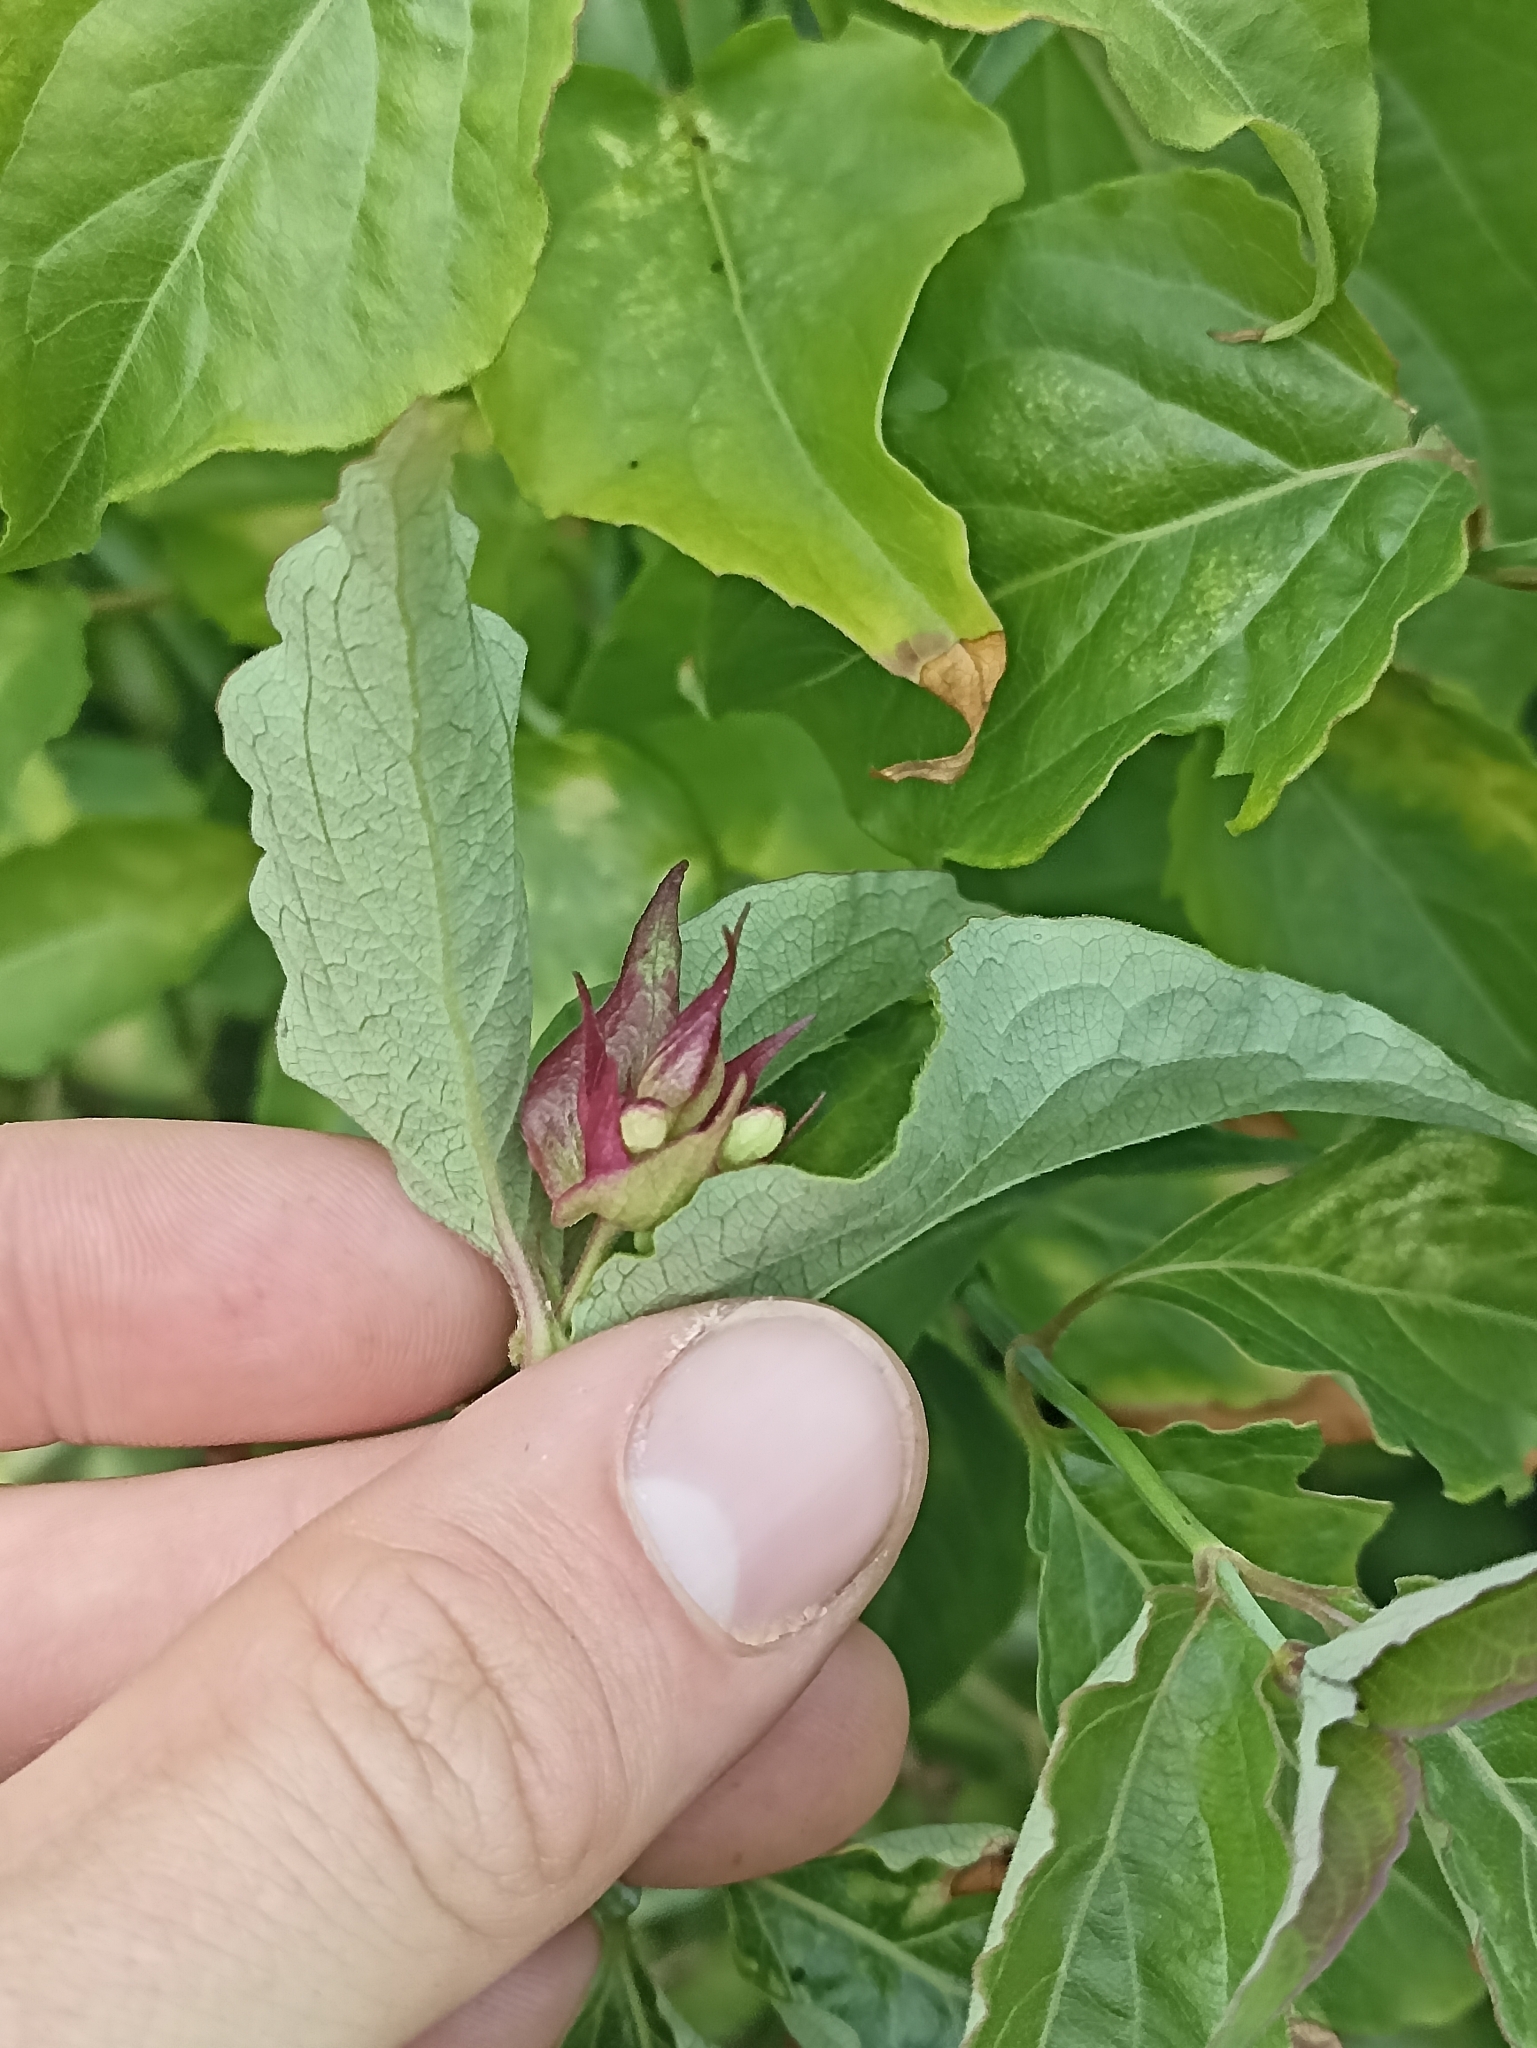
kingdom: Plantae
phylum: Tracheophyta
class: Magnoliopsida
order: Dipsacales
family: Caprifoliaceae
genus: Leycesteria
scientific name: Leycesteria formosa
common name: Himalayan honeysuckle
